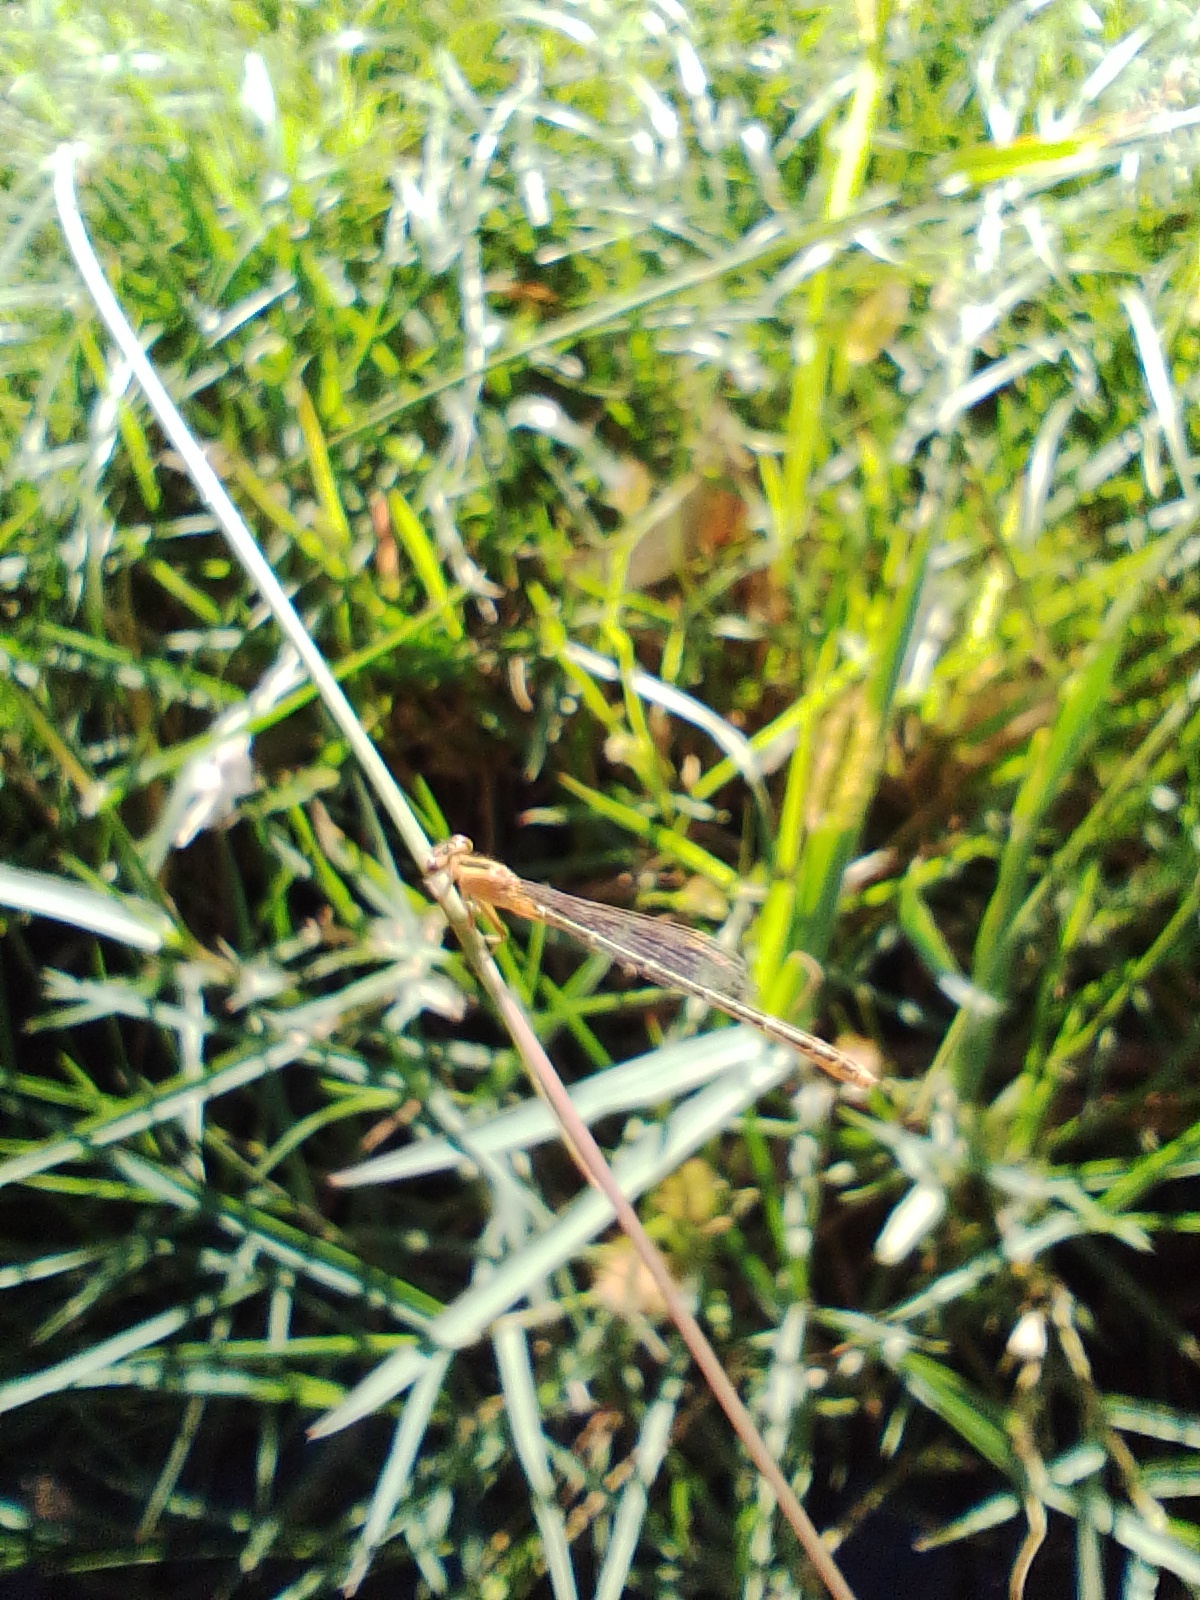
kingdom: Animalia
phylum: Arthropoda
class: Insecta
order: Odonata
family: Coenagrionidae
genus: Ischnura
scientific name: Ischnura fluviatilis
